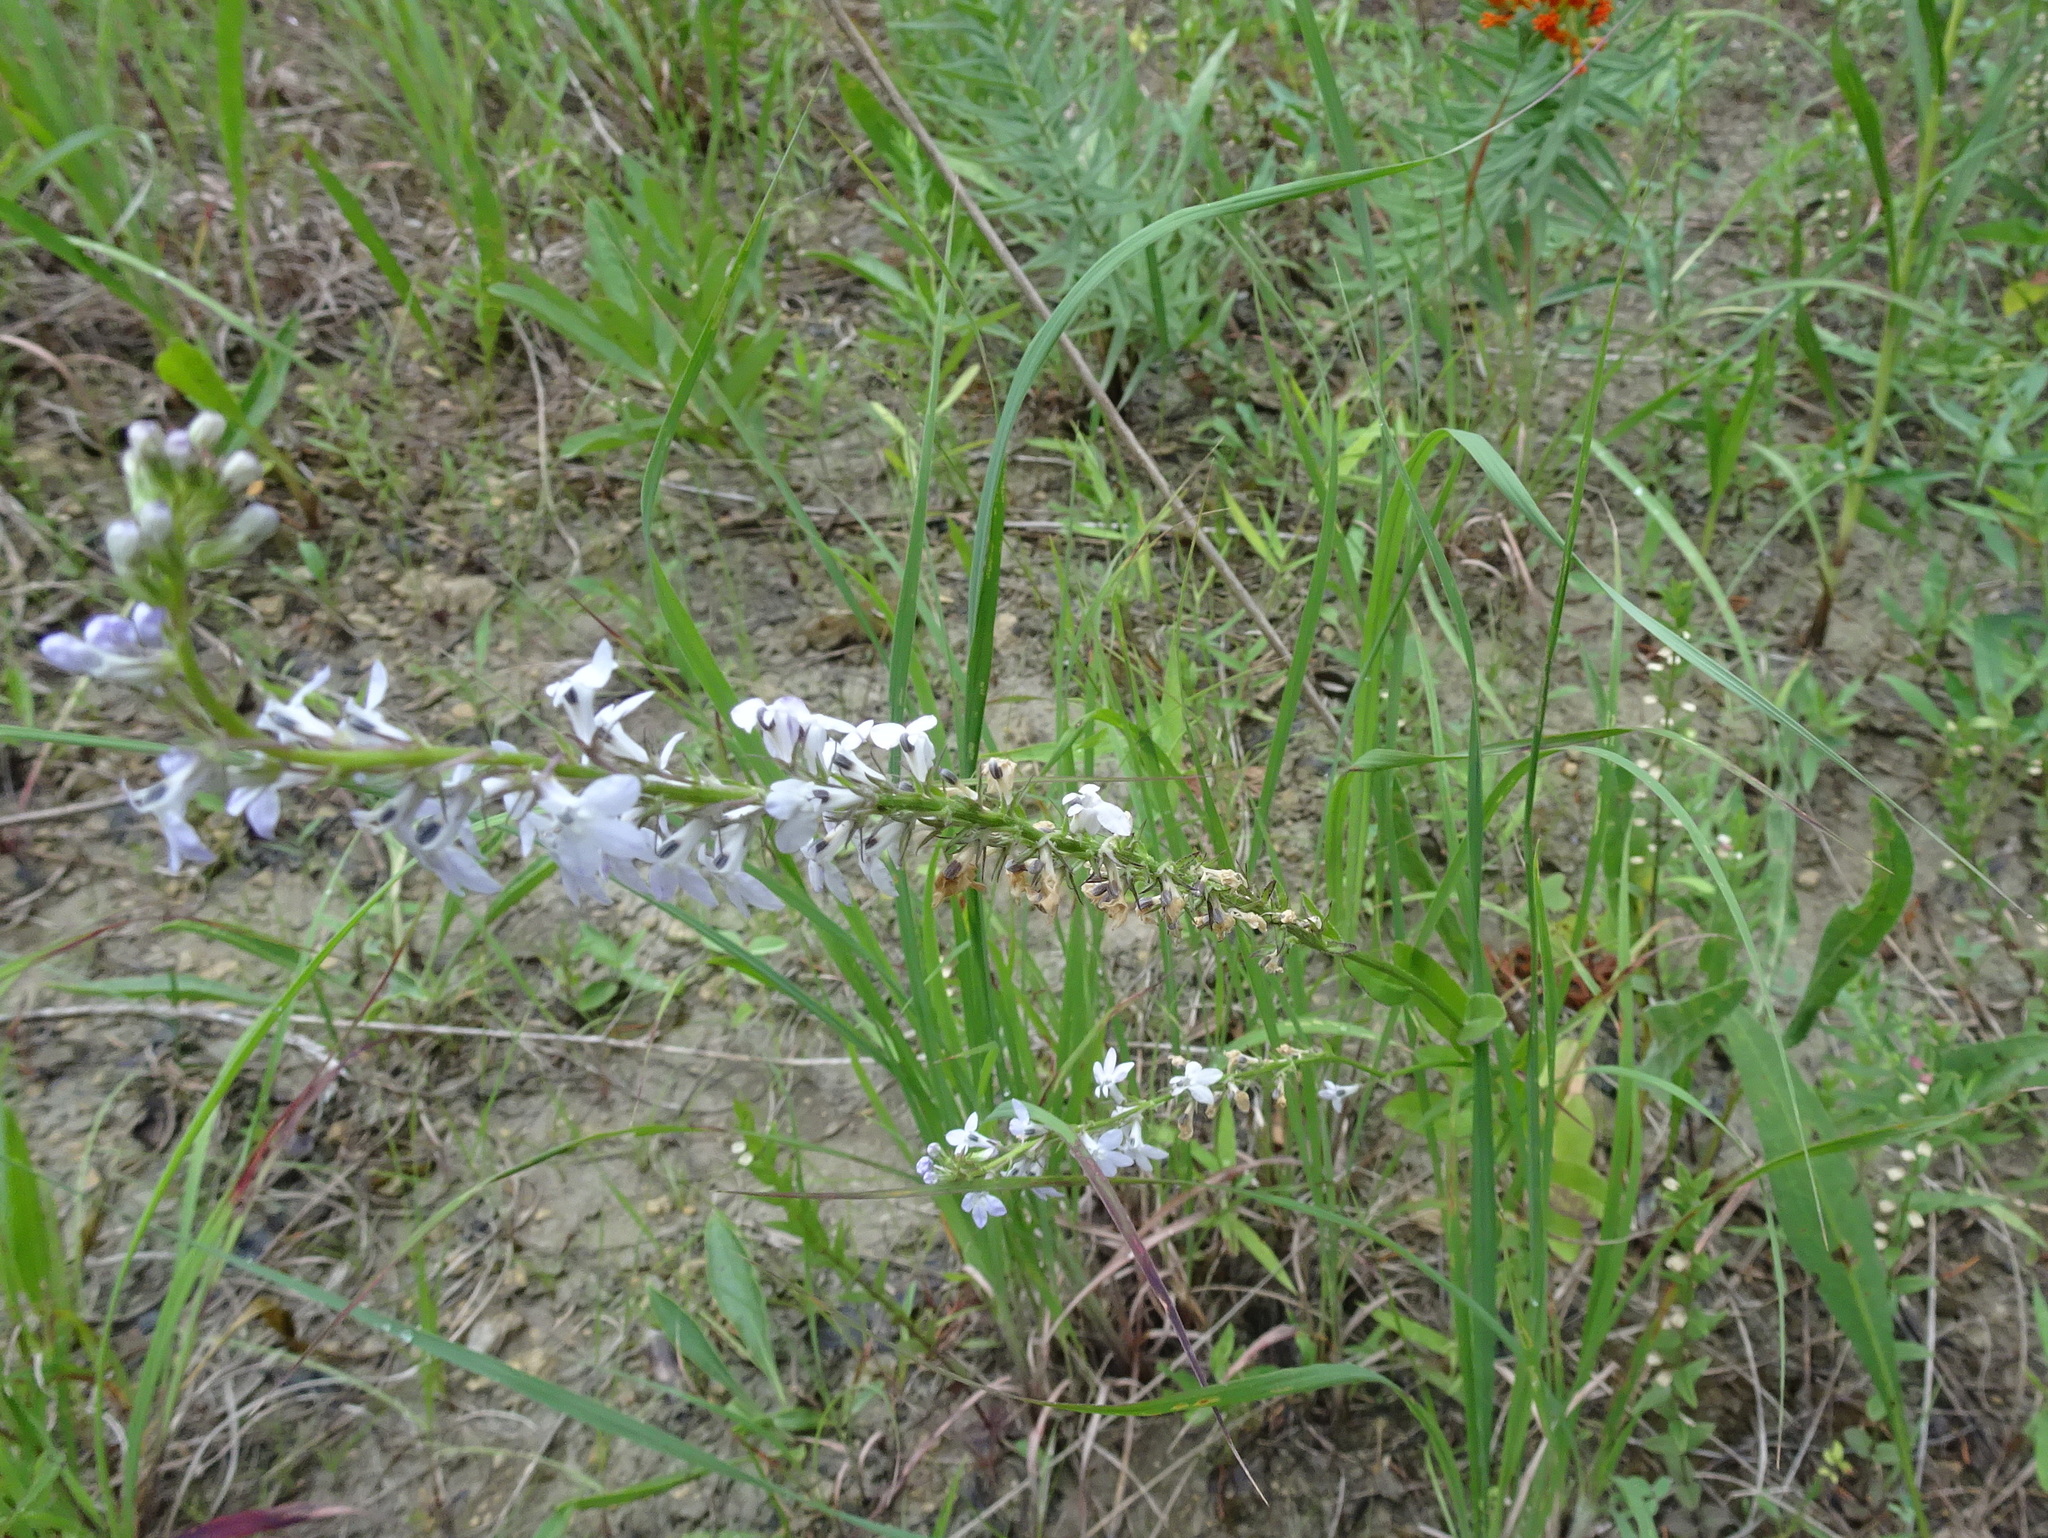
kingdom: Plantae
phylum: Tracheophyta
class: Magnoliopsida
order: Asterales
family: Campanulaceae
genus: Lobelia
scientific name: Lobelia spicata
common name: Pale-spike lobelia
